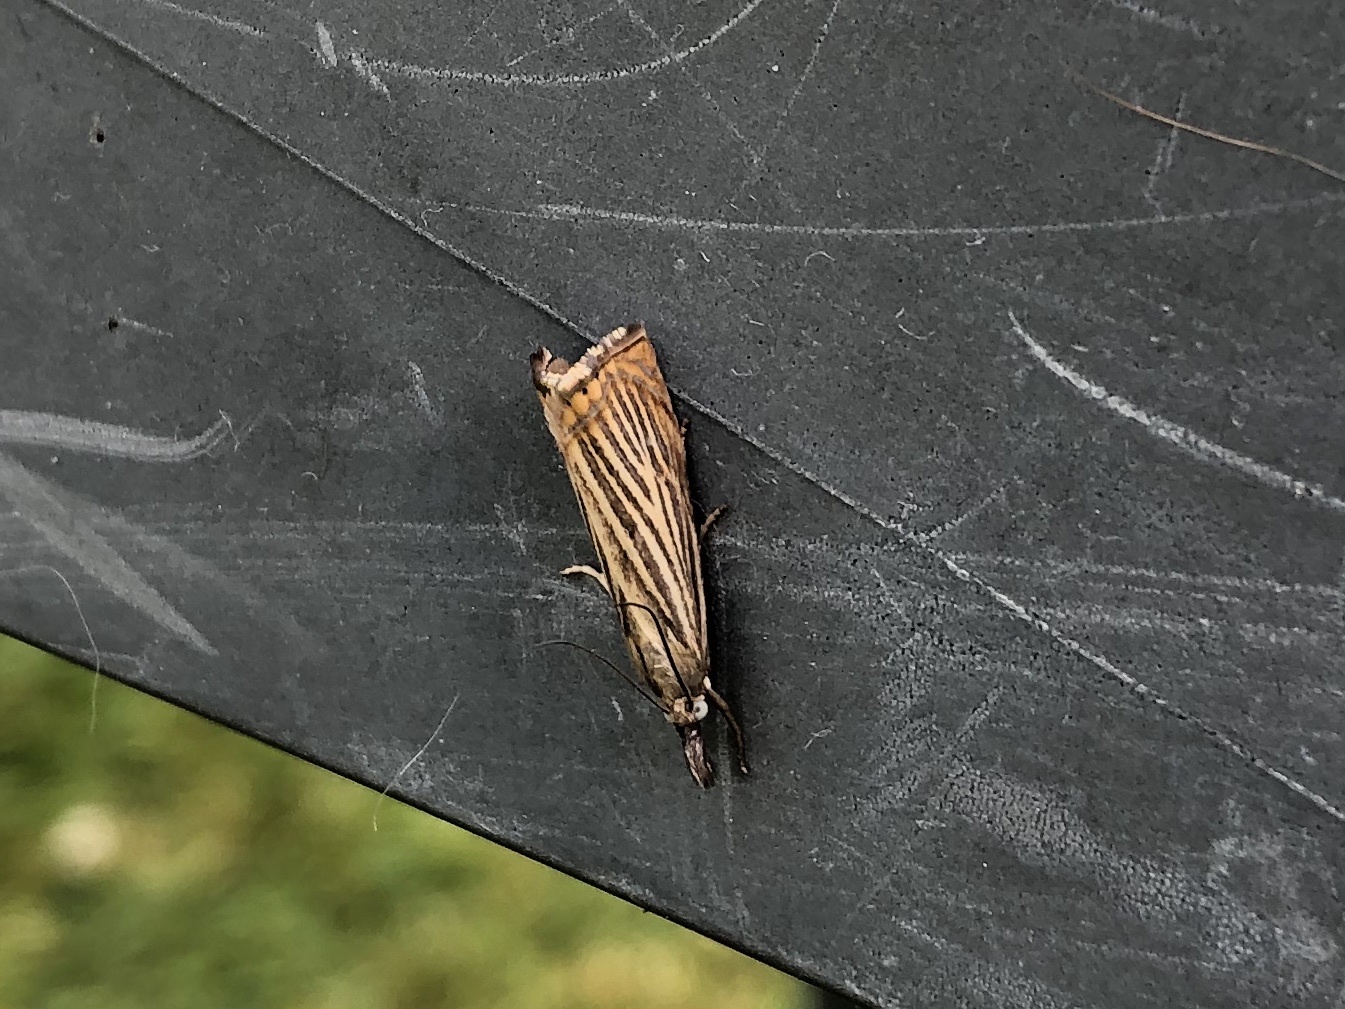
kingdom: Animalia
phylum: Arthropoda
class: Insecta
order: Lepidoptera
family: Crambidae
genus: Chrysoteuchia
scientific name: Chrysoteuchia culmella
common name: Garden grass-veneer
